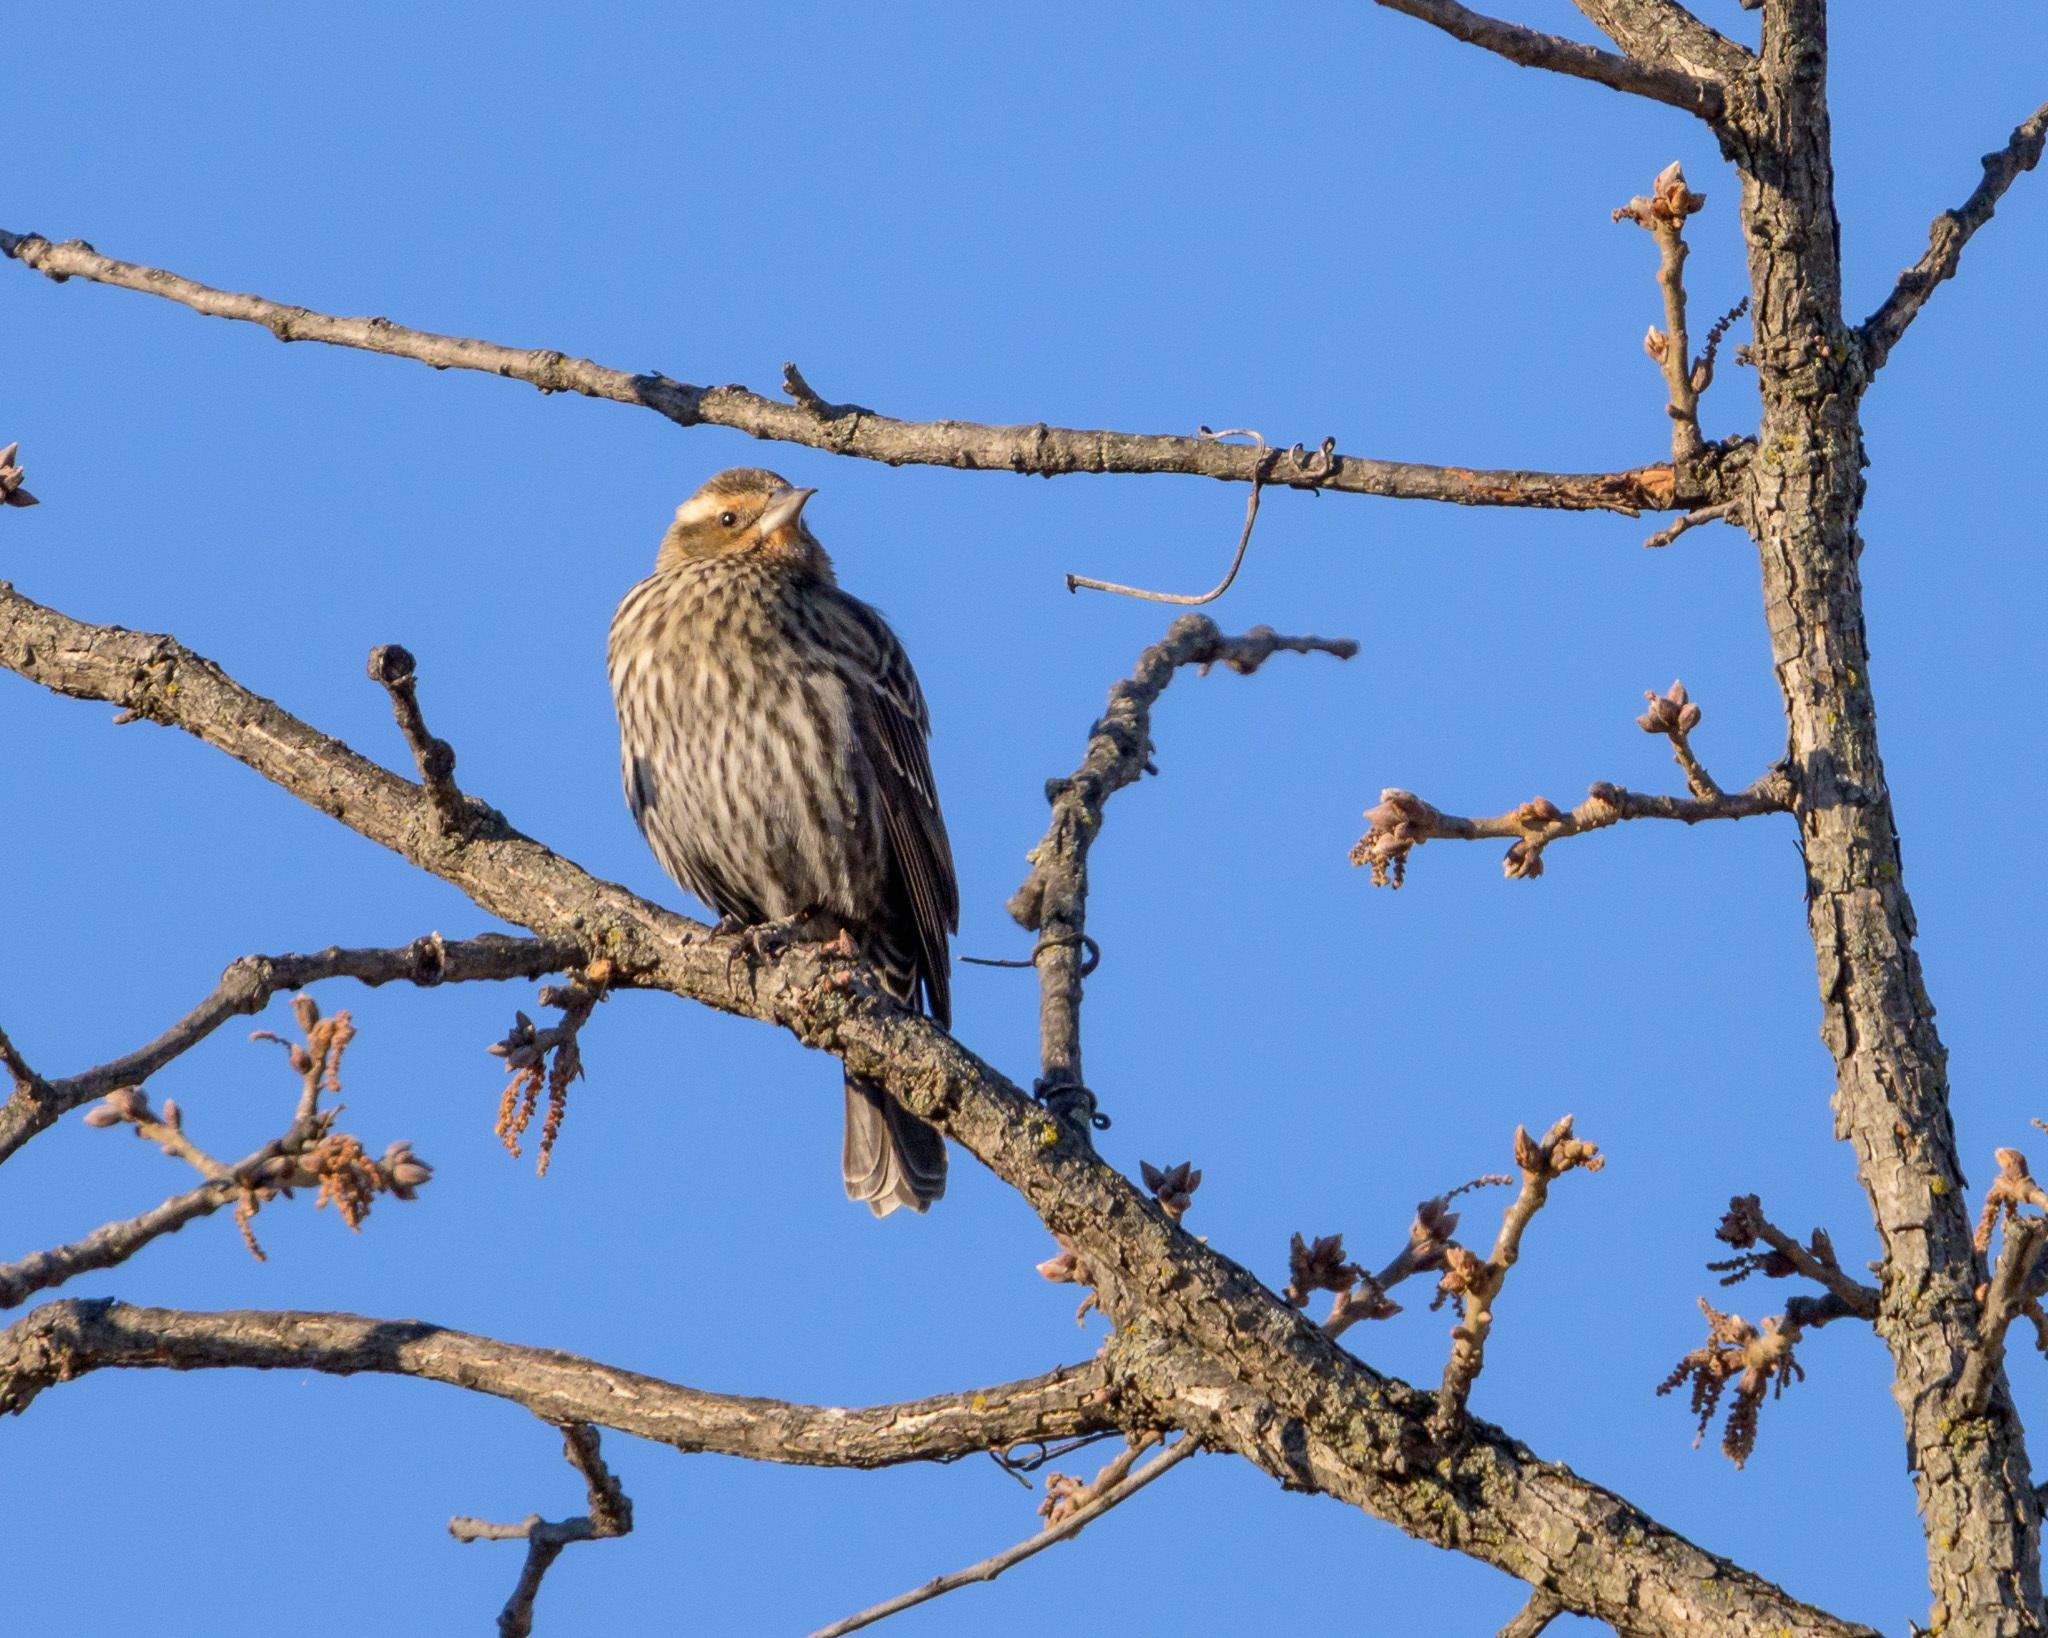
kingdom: Animalia
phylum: Chordata
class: Aves
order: Passeriformes
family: Icteridae
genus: Agelaius
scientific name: Agelaius phoeniceus
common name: Red-winged blackbird
